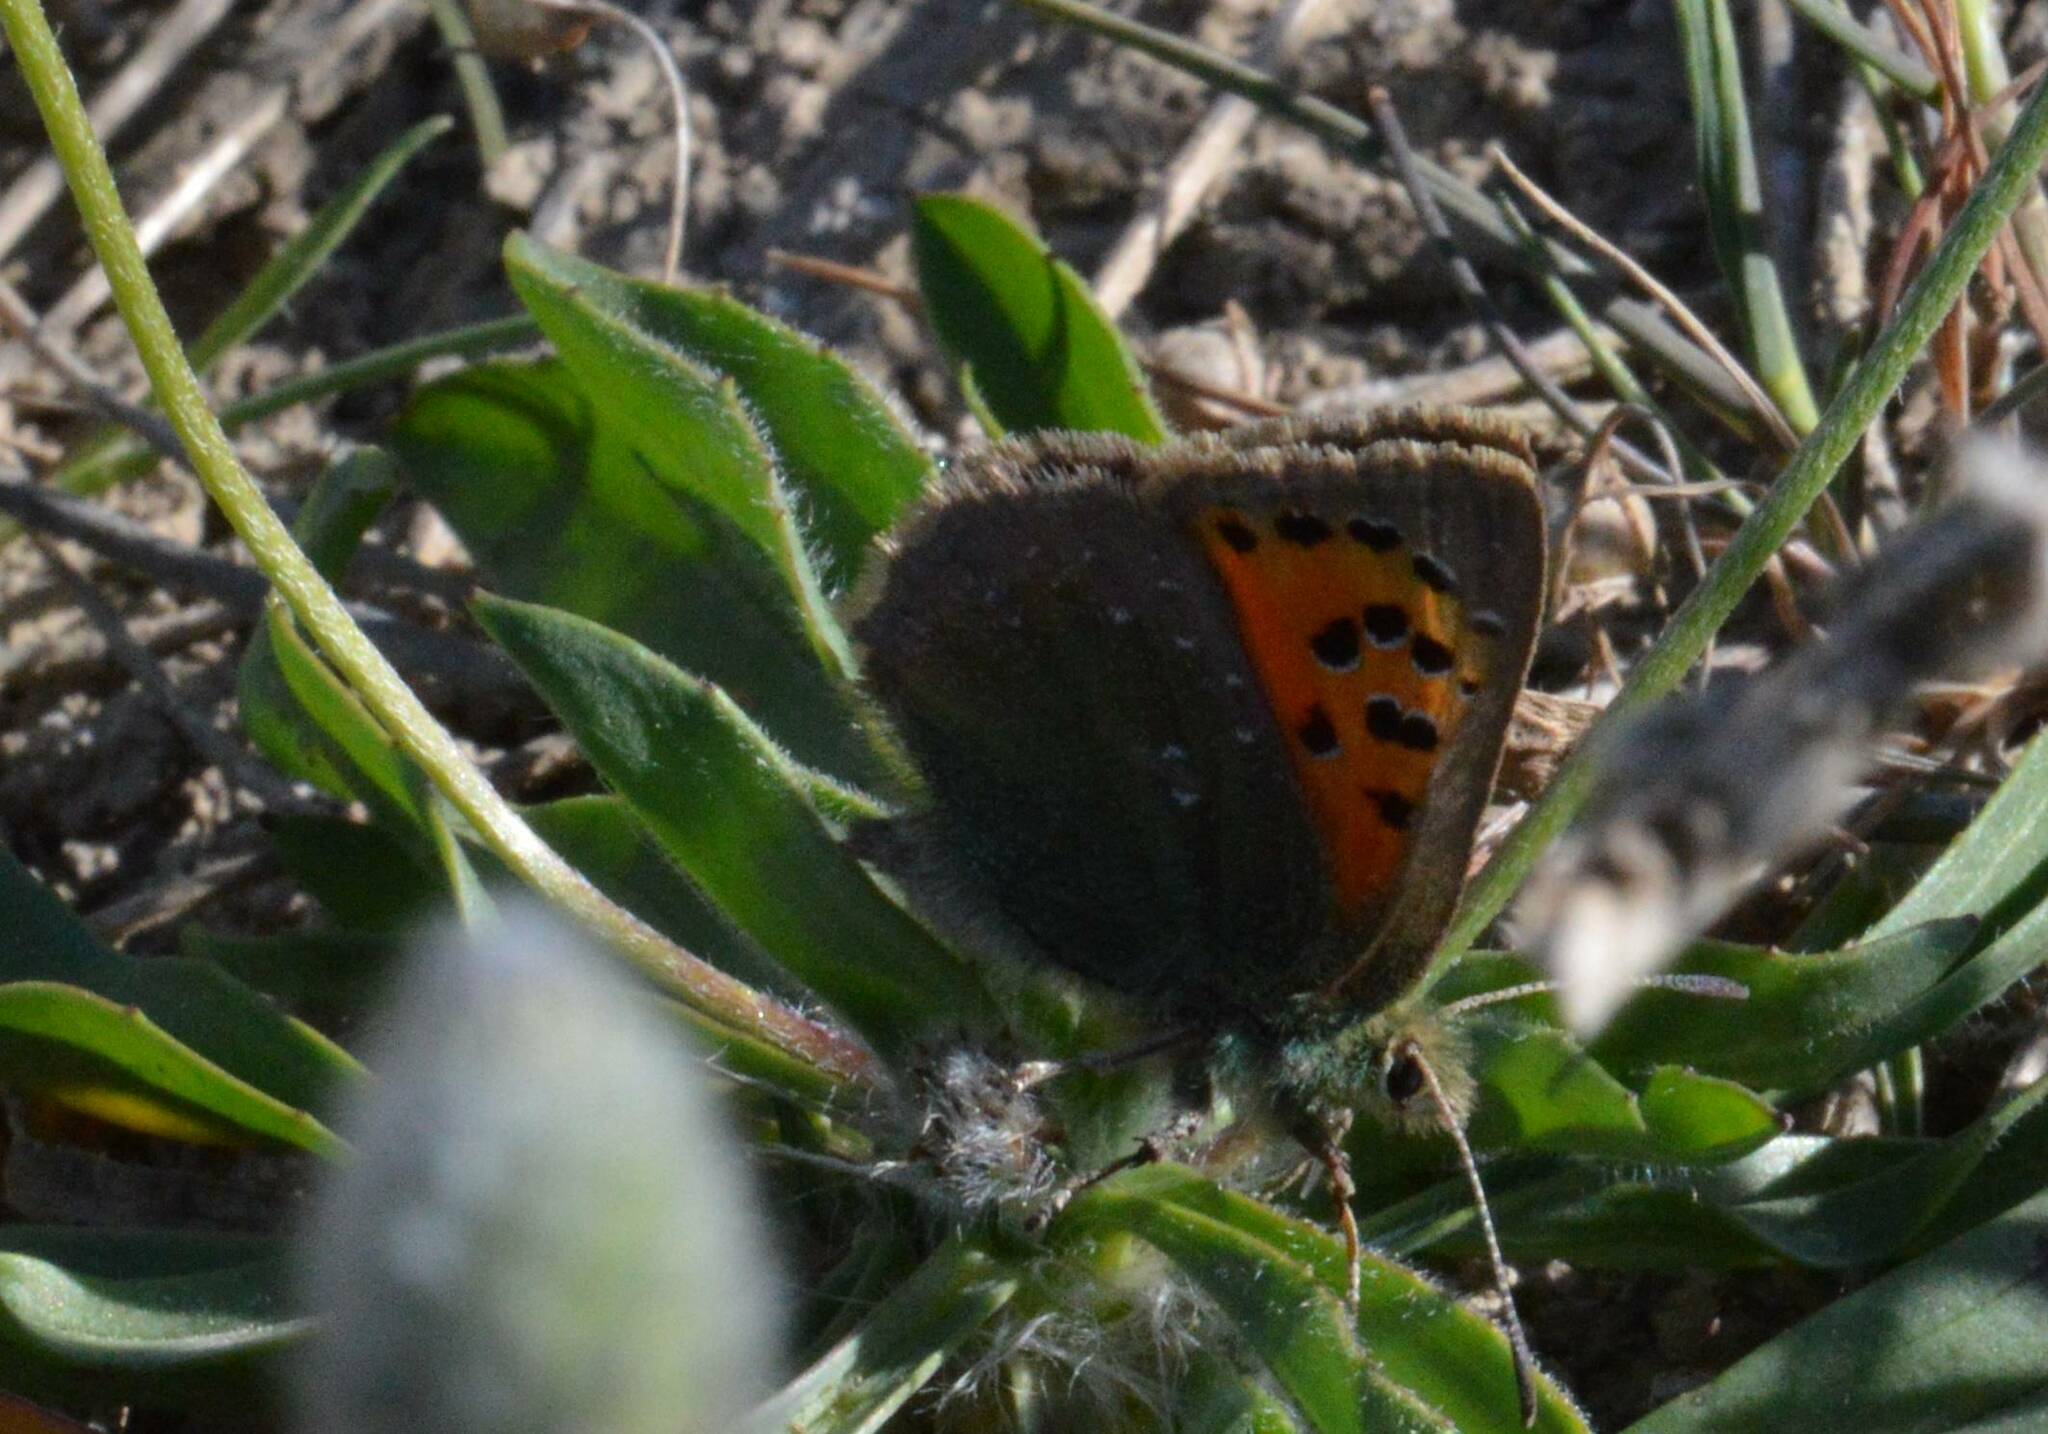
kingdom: Animalia
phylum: Arthropoda
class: Insecta
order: Lepidoptera
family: Lycaenidae
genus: Tomares
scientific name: Tomares ballus
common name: Provence hairstreak
